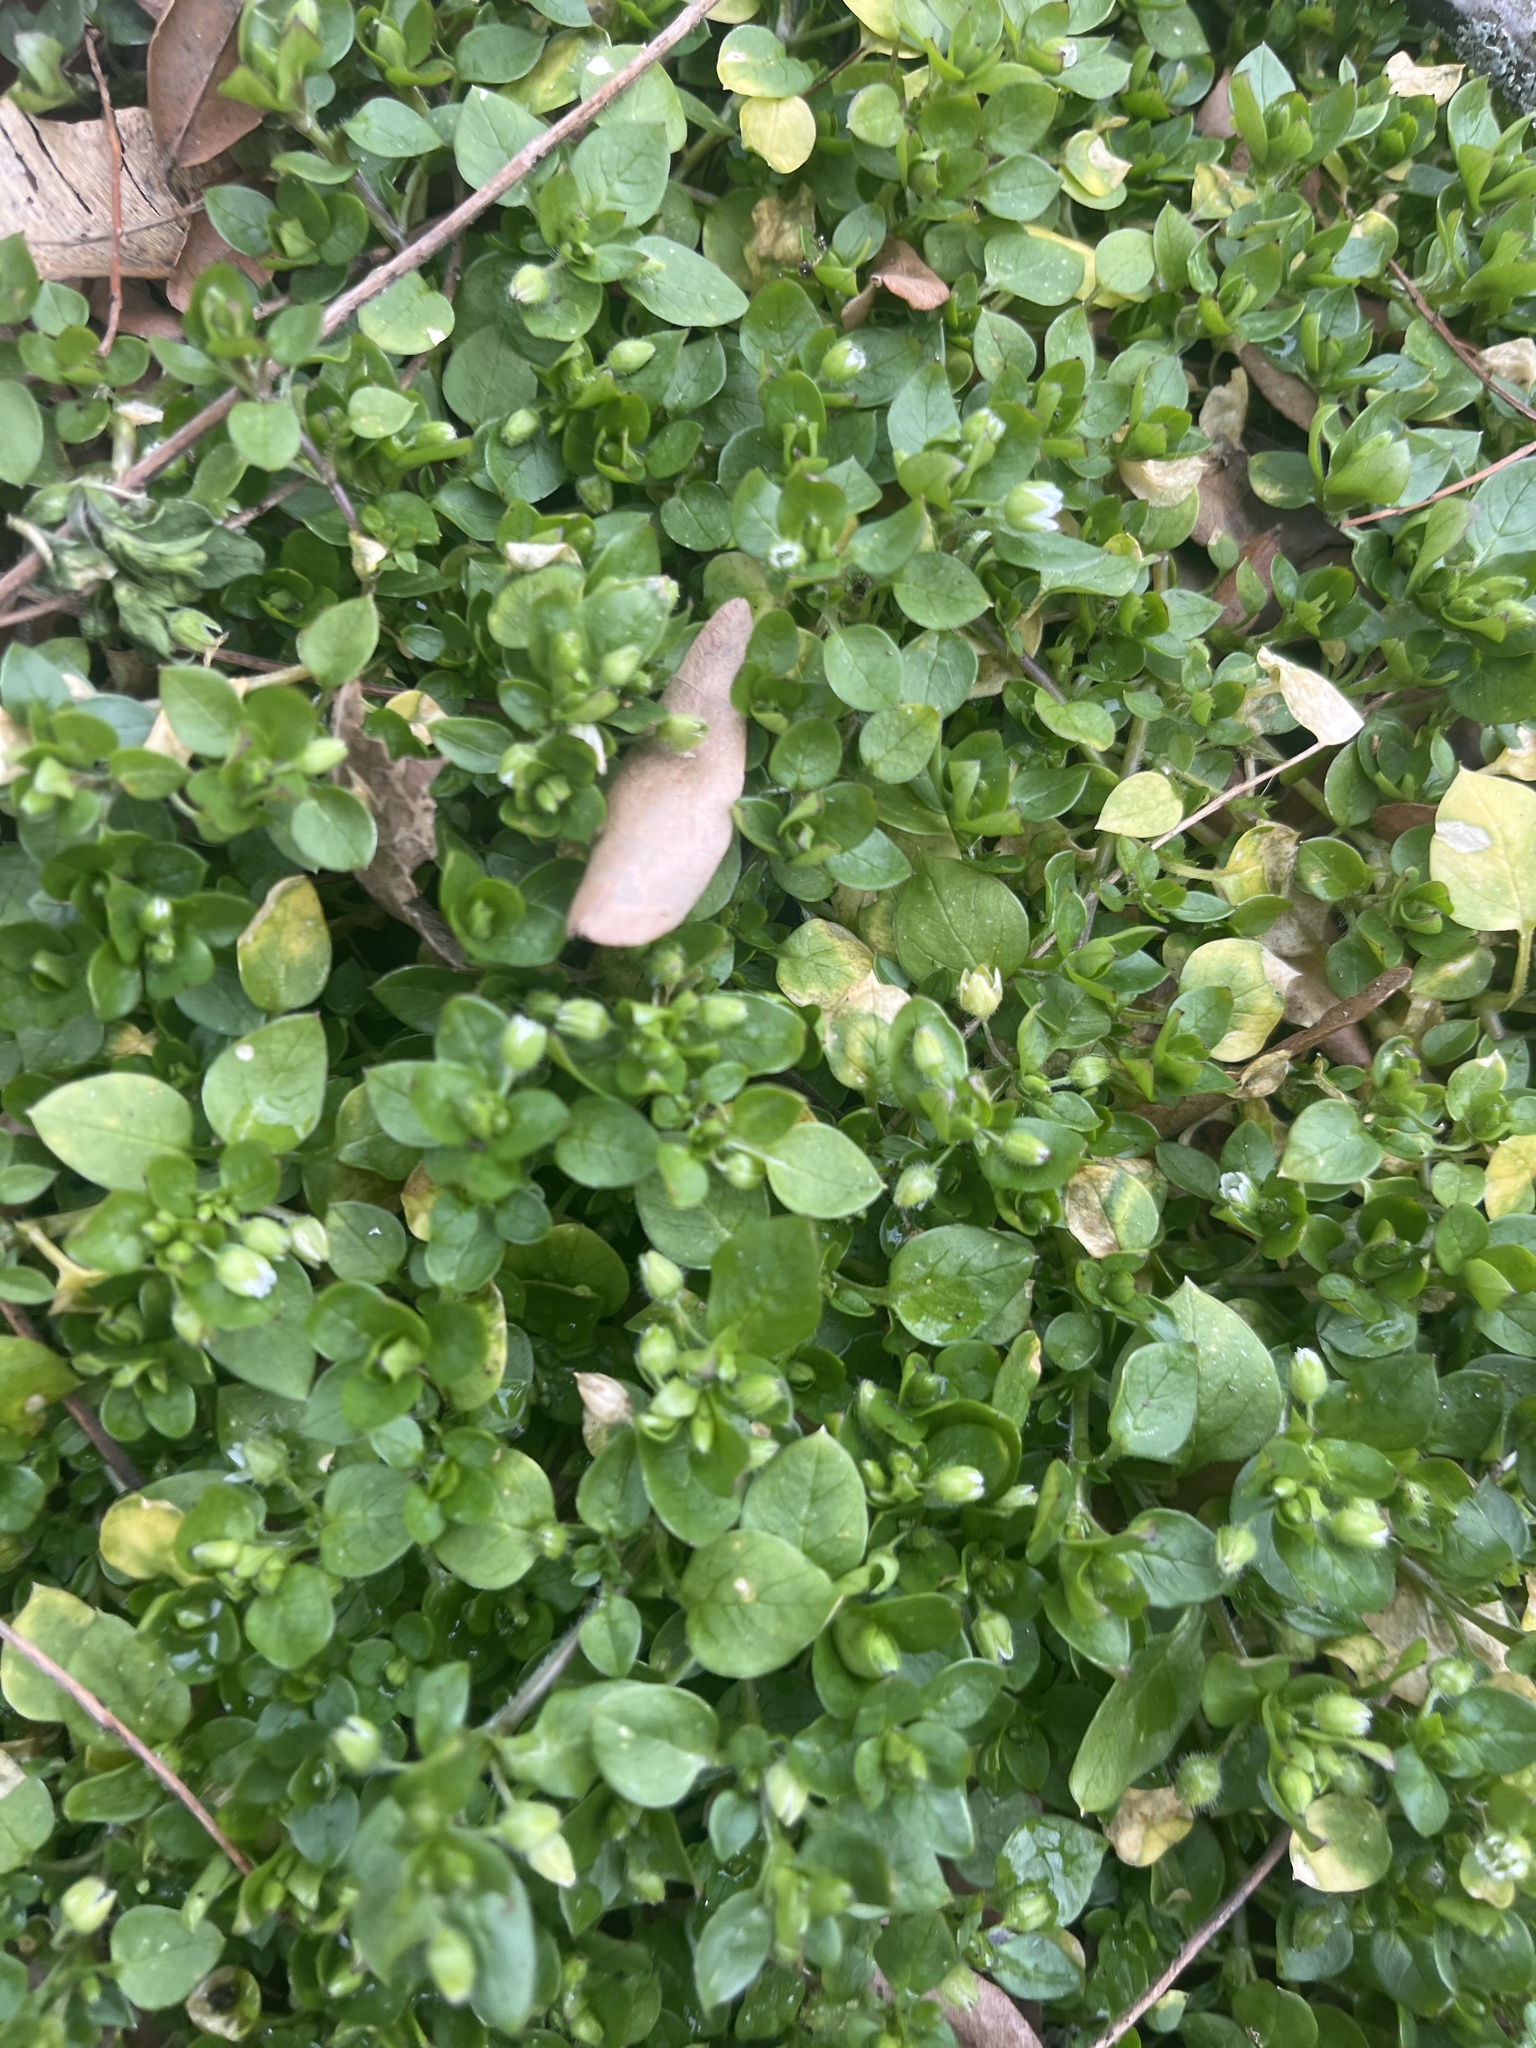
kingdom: Plantae
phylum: Tracheophyta
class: Magnoliopsida
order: Caryophyllales
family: Caryophyllaceae
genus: Stellaria
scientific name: Stellaria media
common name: Common chickweed
